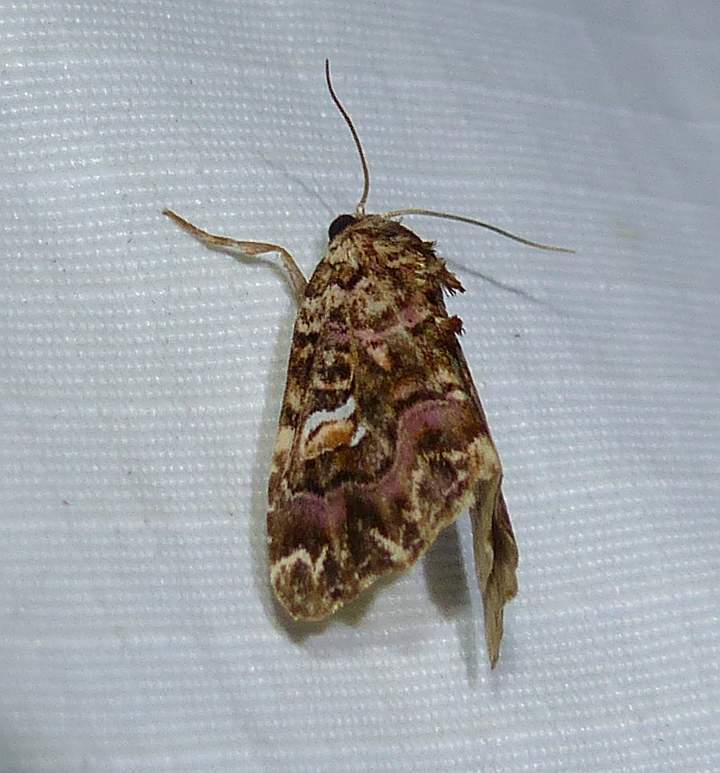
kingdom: Animalia
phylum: Arthropoda
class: Insecta
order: Lepidoptera
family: Noctuidae
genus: Callopistria
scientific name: Callopistria mollissima
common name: Pink-shaded fern moth
